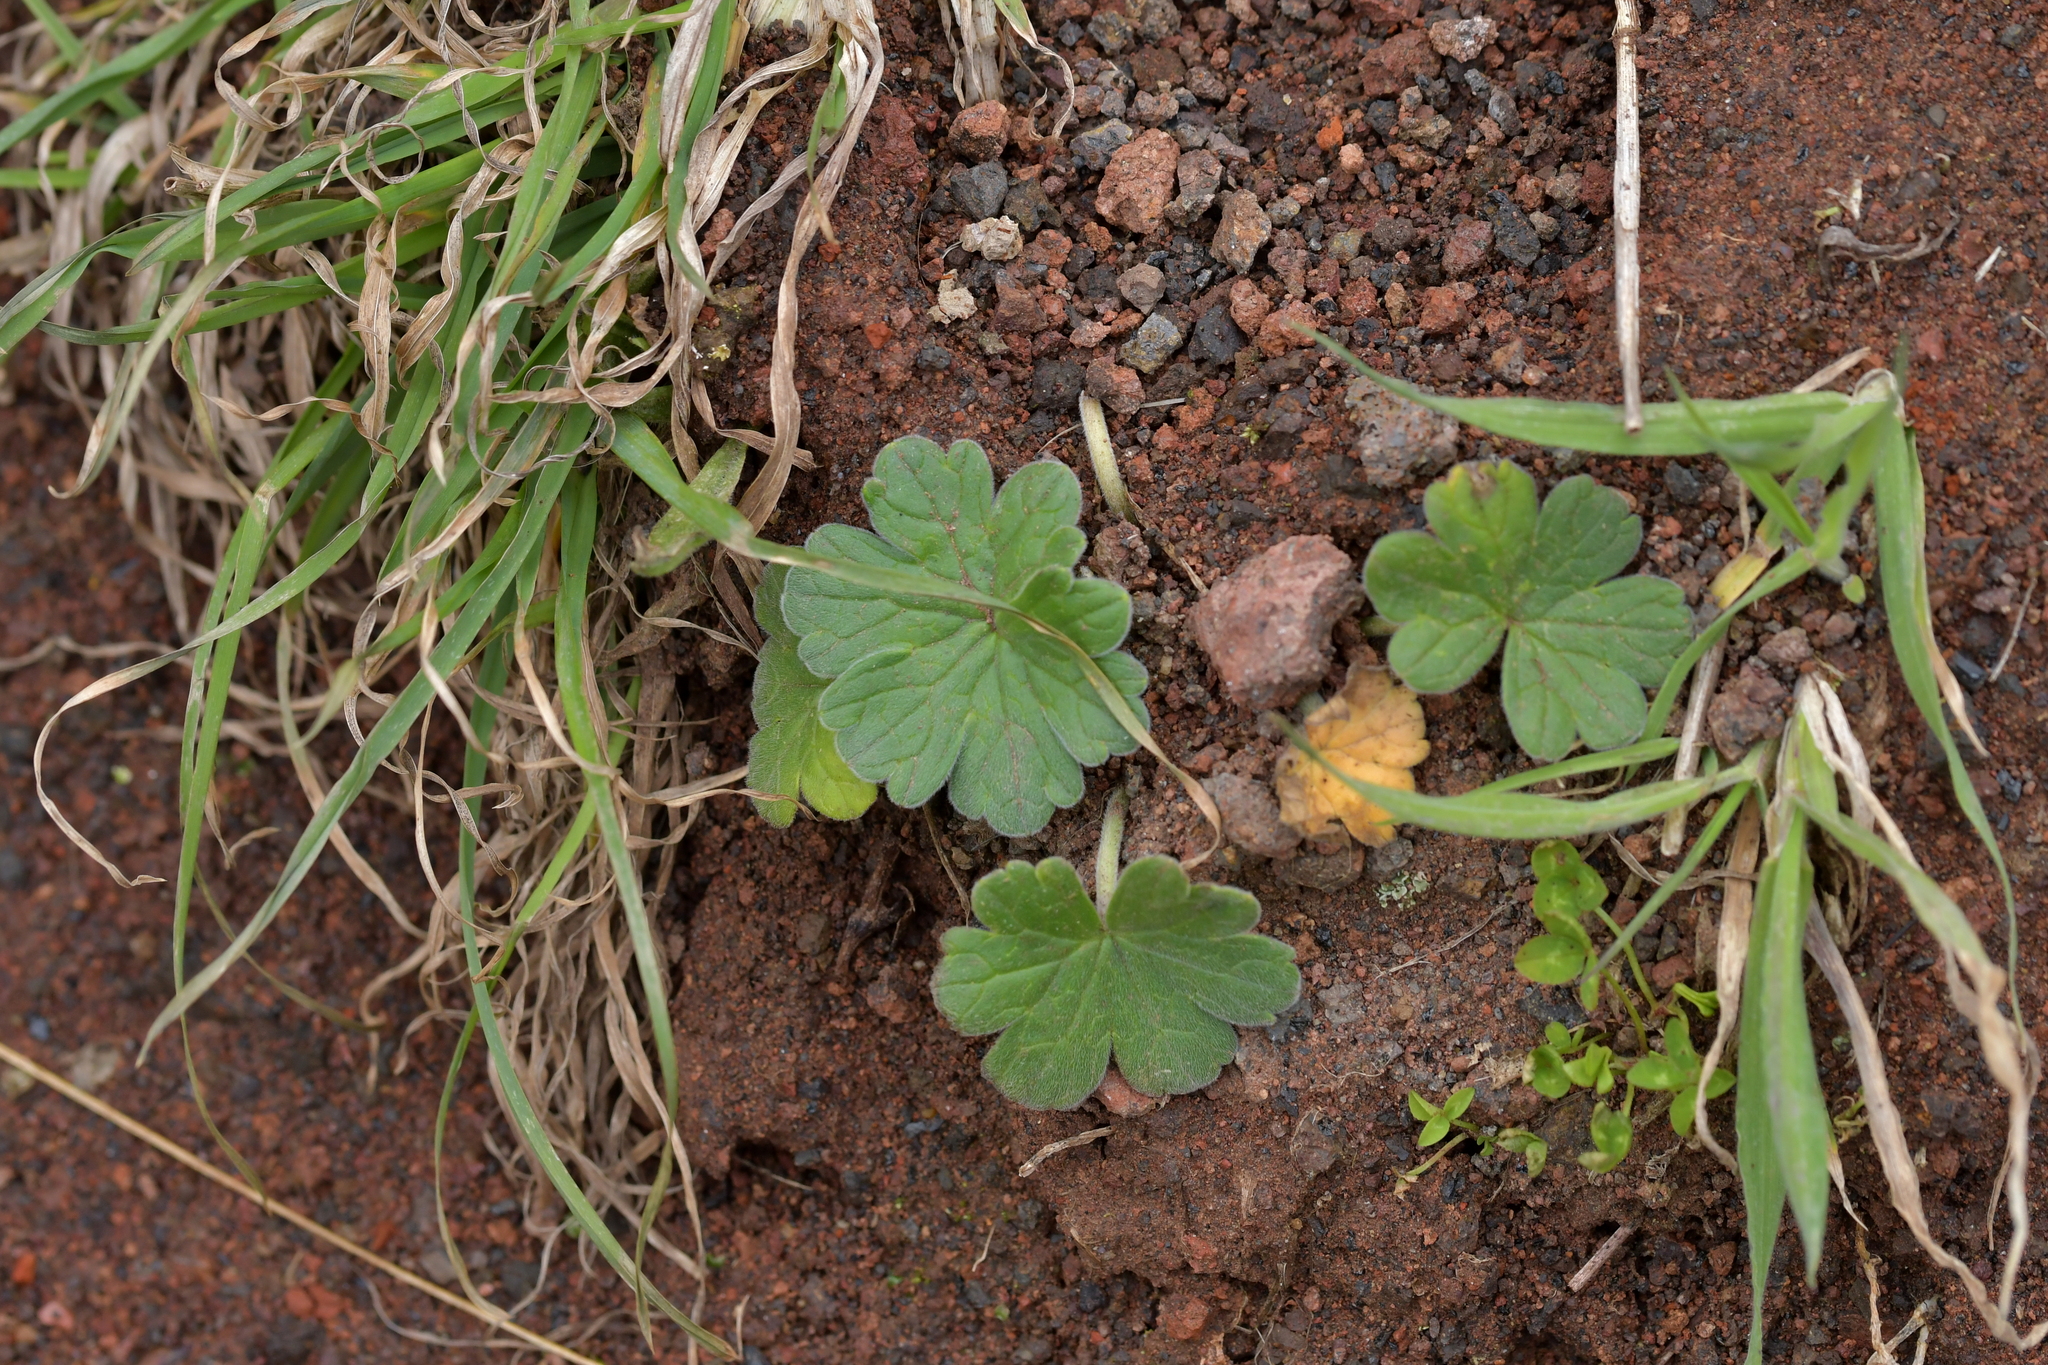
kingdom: Plantae
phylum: Tracheophyta
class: Magnoliopsida
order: Geraniales
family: Geraniaceae
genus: Geranium
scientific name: Geranium traversii
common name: Cranesbill
